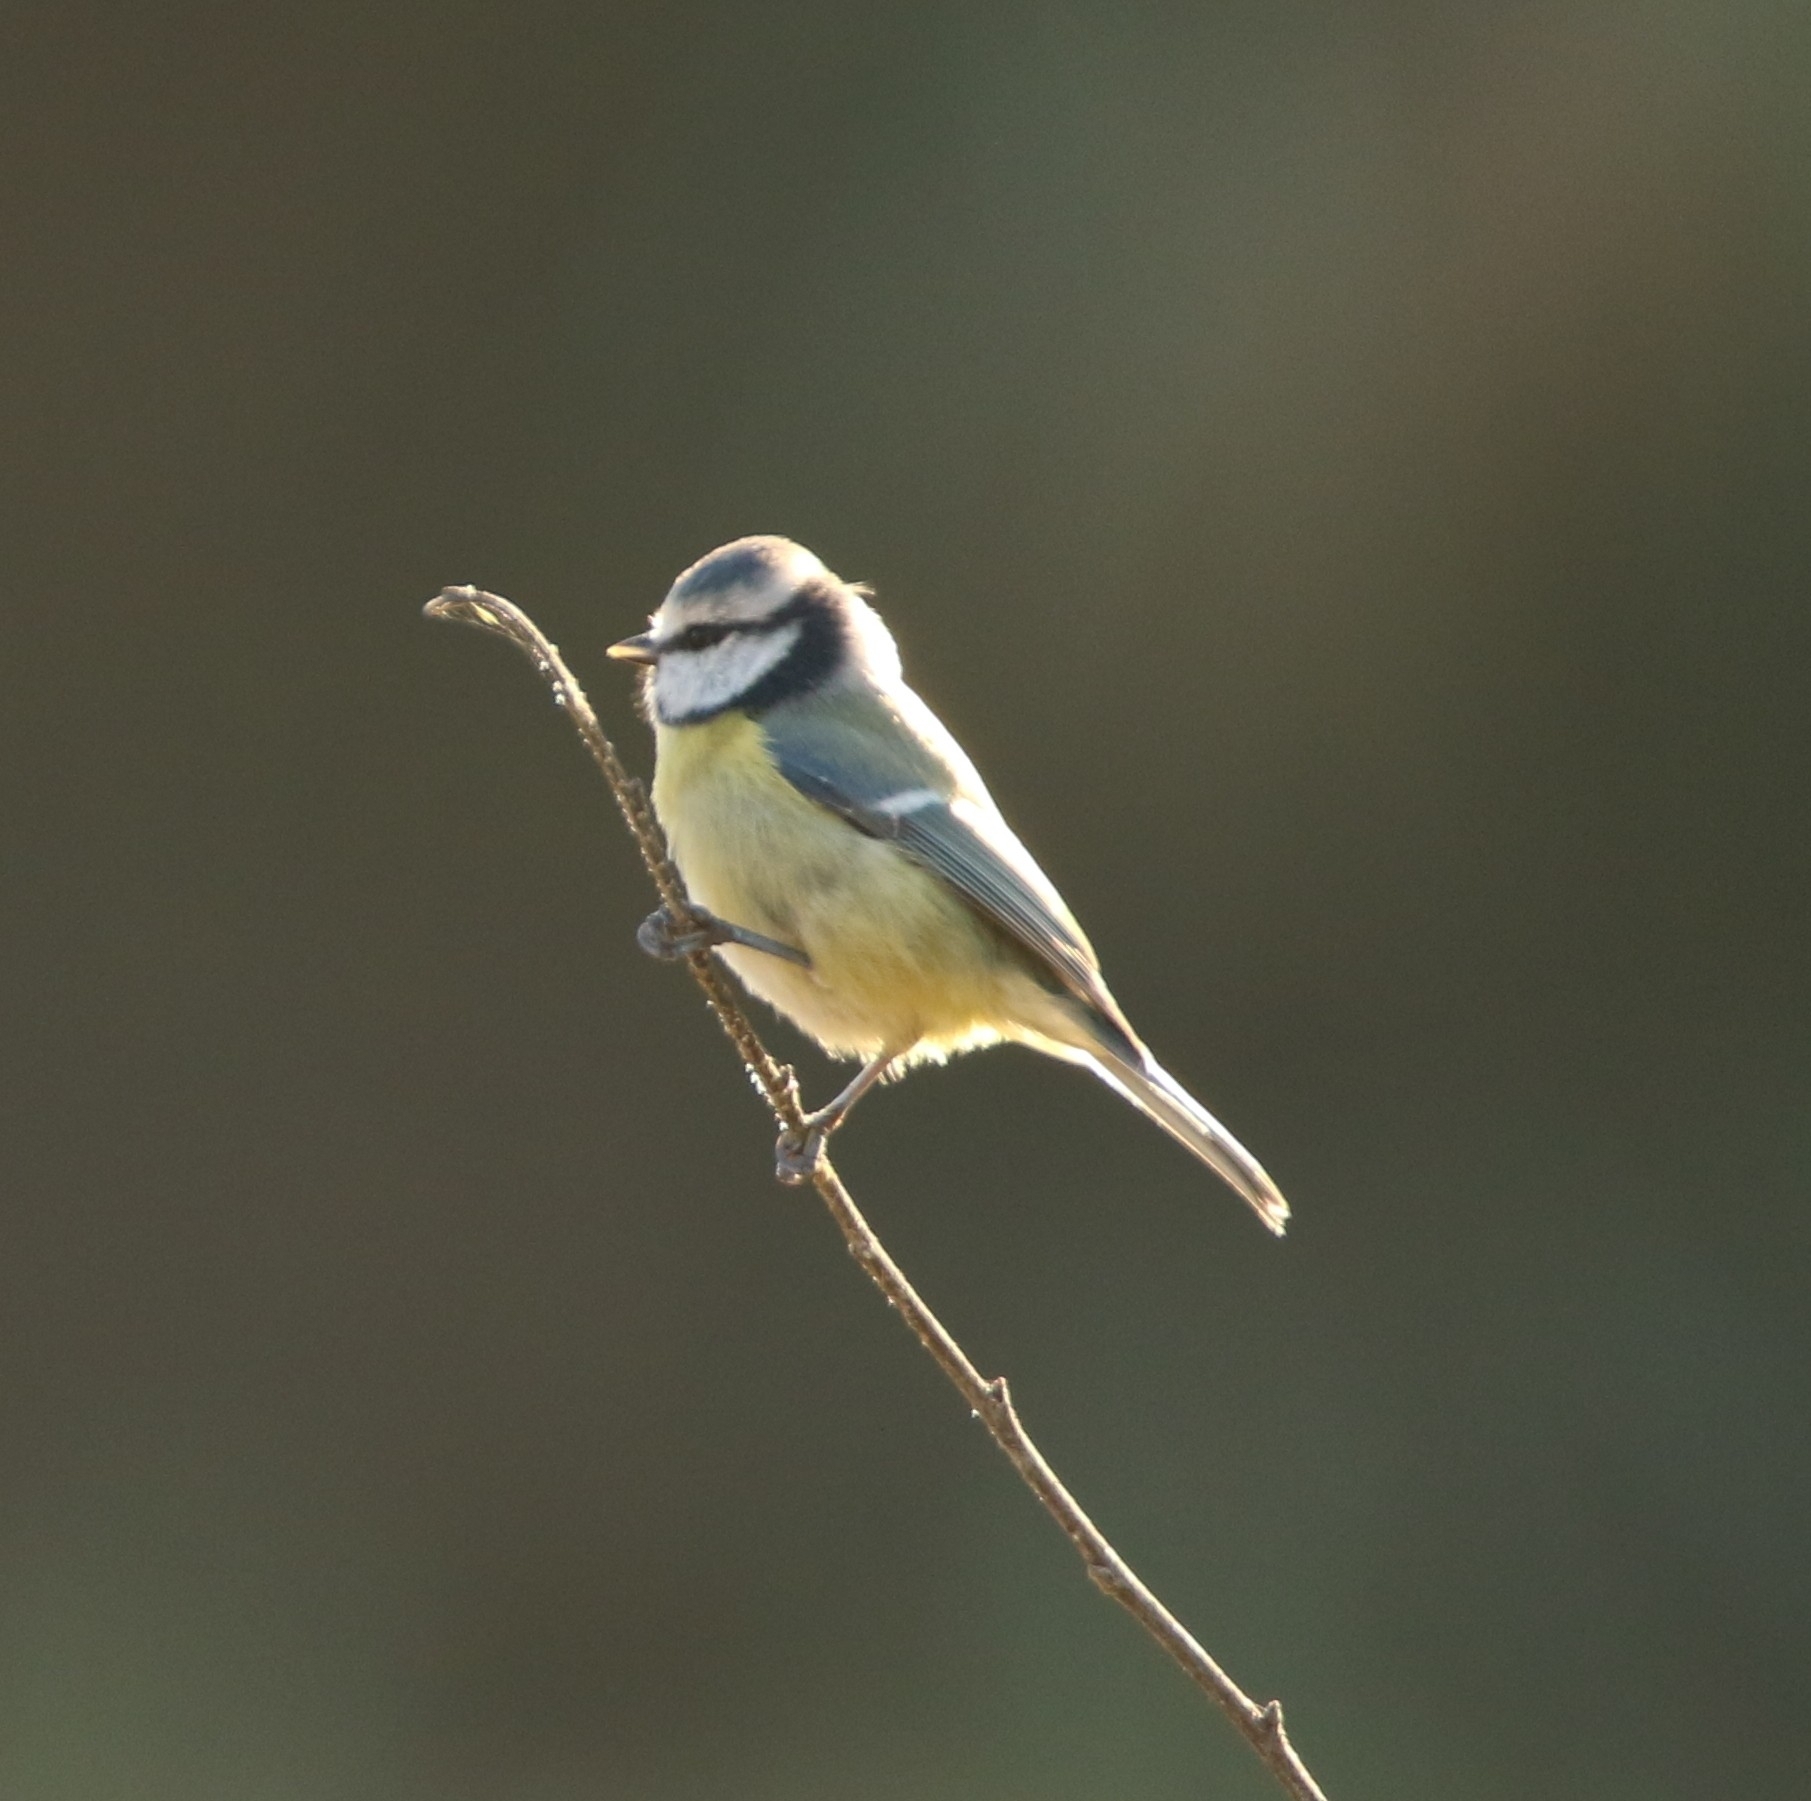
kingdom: Animalia
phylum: Chordata
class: Aves
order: Passeriformes
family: Paridae
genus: Cyanistes
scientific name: Cyanistes caeruleus
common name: Eurasian blue tit
